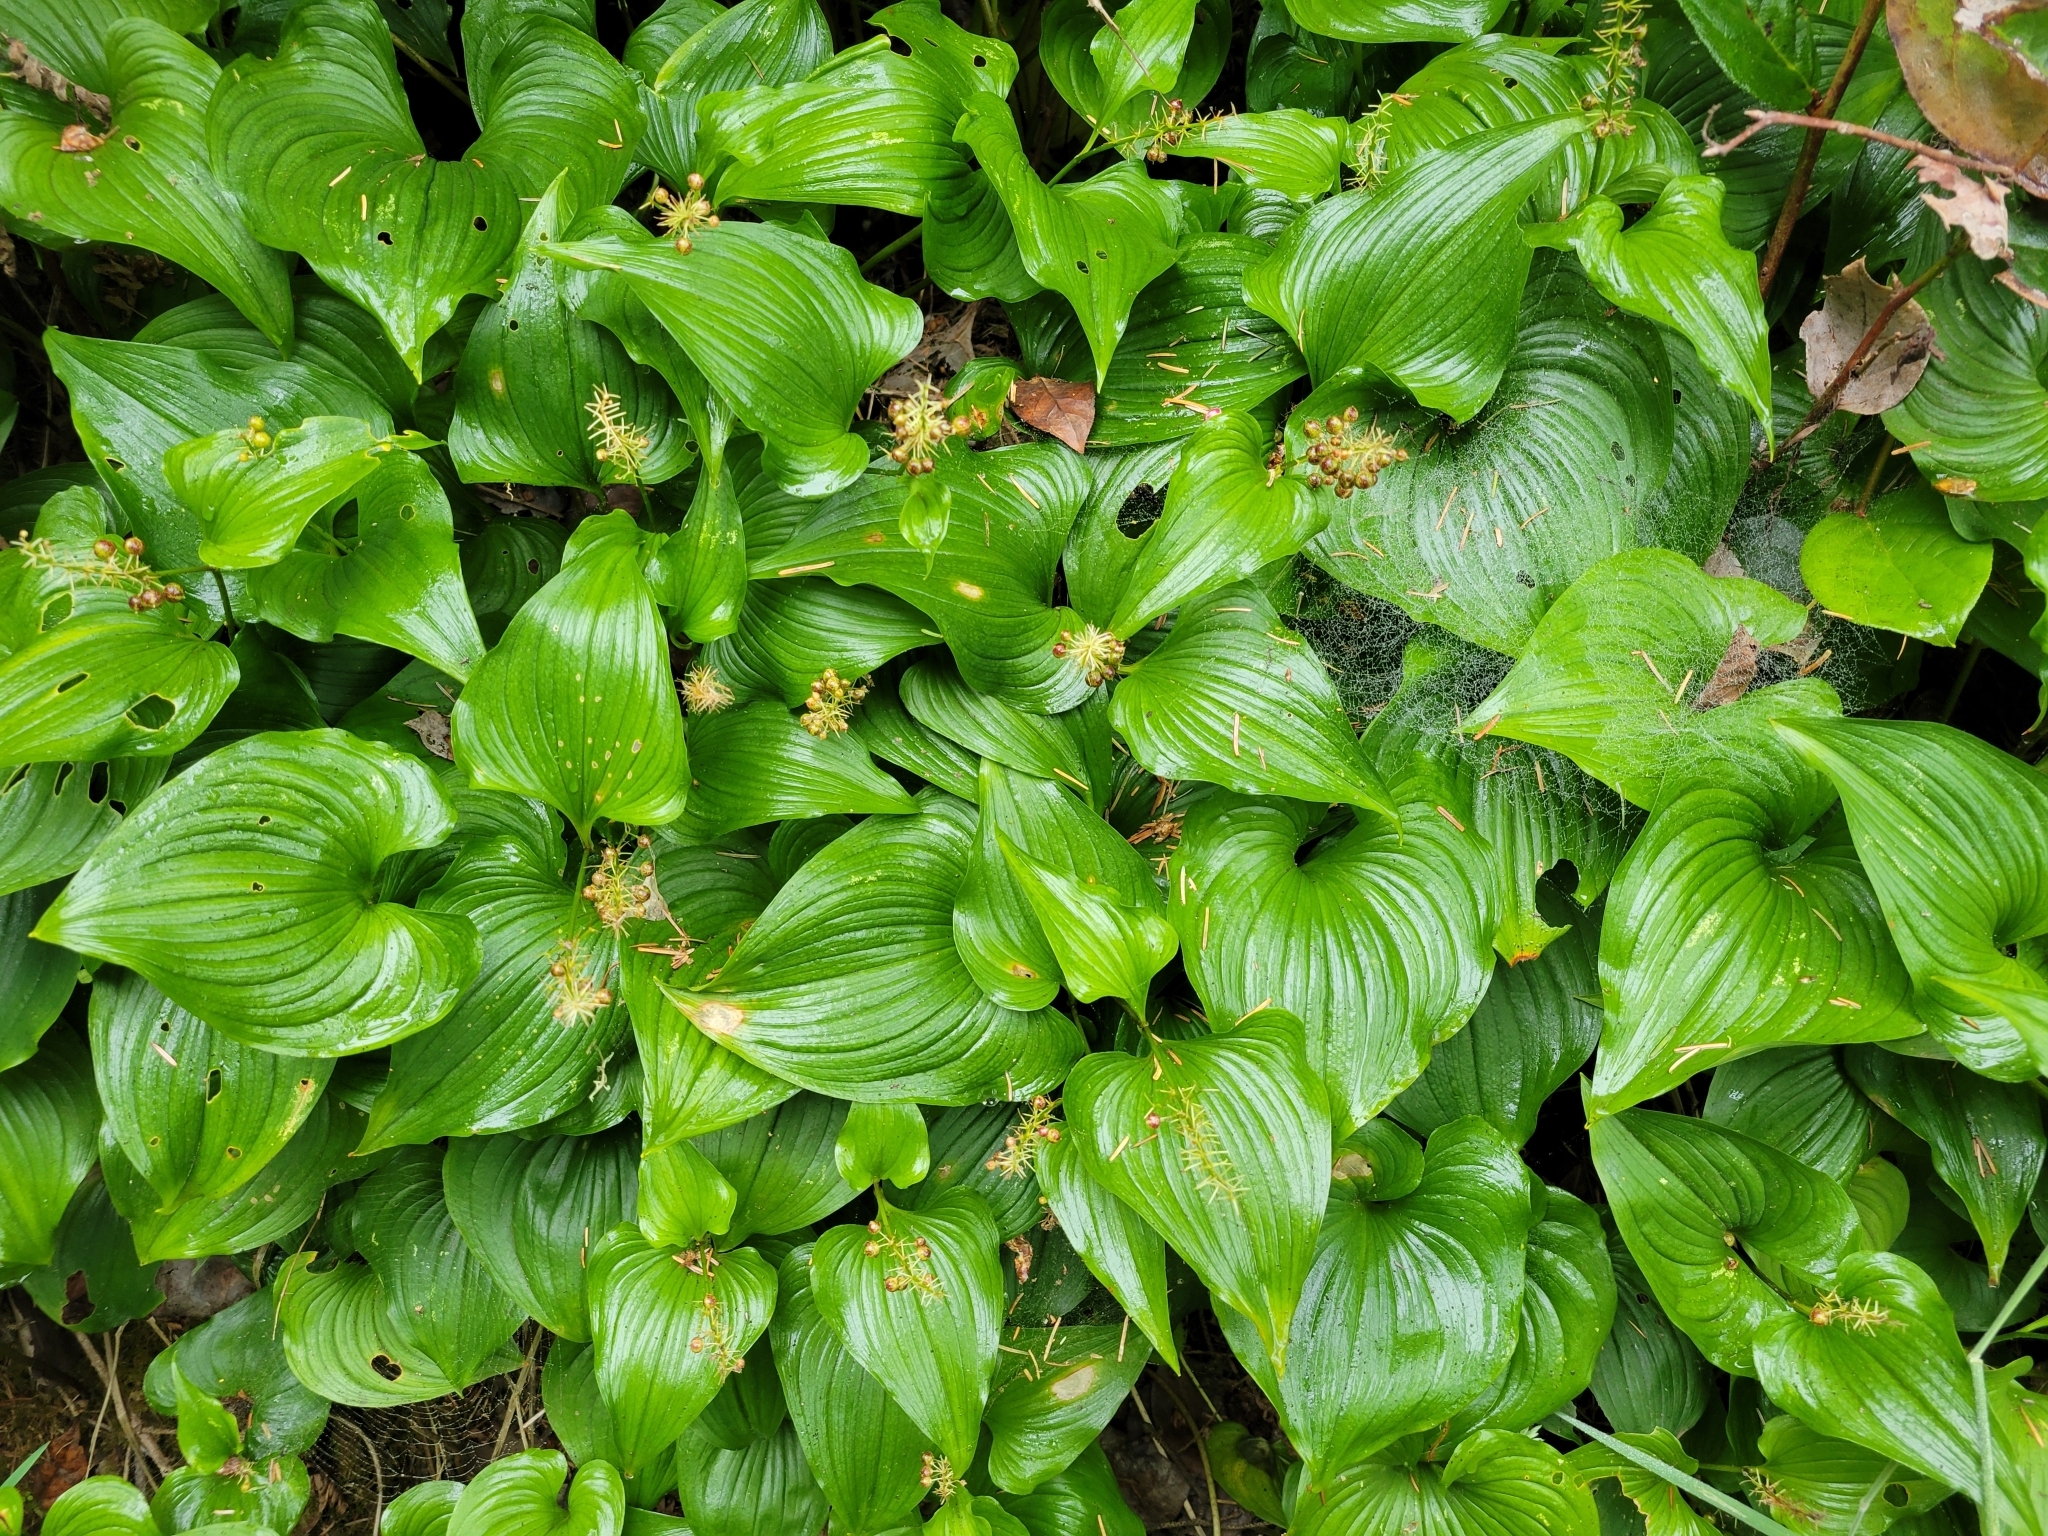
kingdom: Plantae
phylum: Tracheophyta
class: Liliopsida
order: Asparagales
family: Asparagaceae
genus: Maianthemum
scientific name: Maianthemum dilatatum
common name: False lily-of-the-valley
